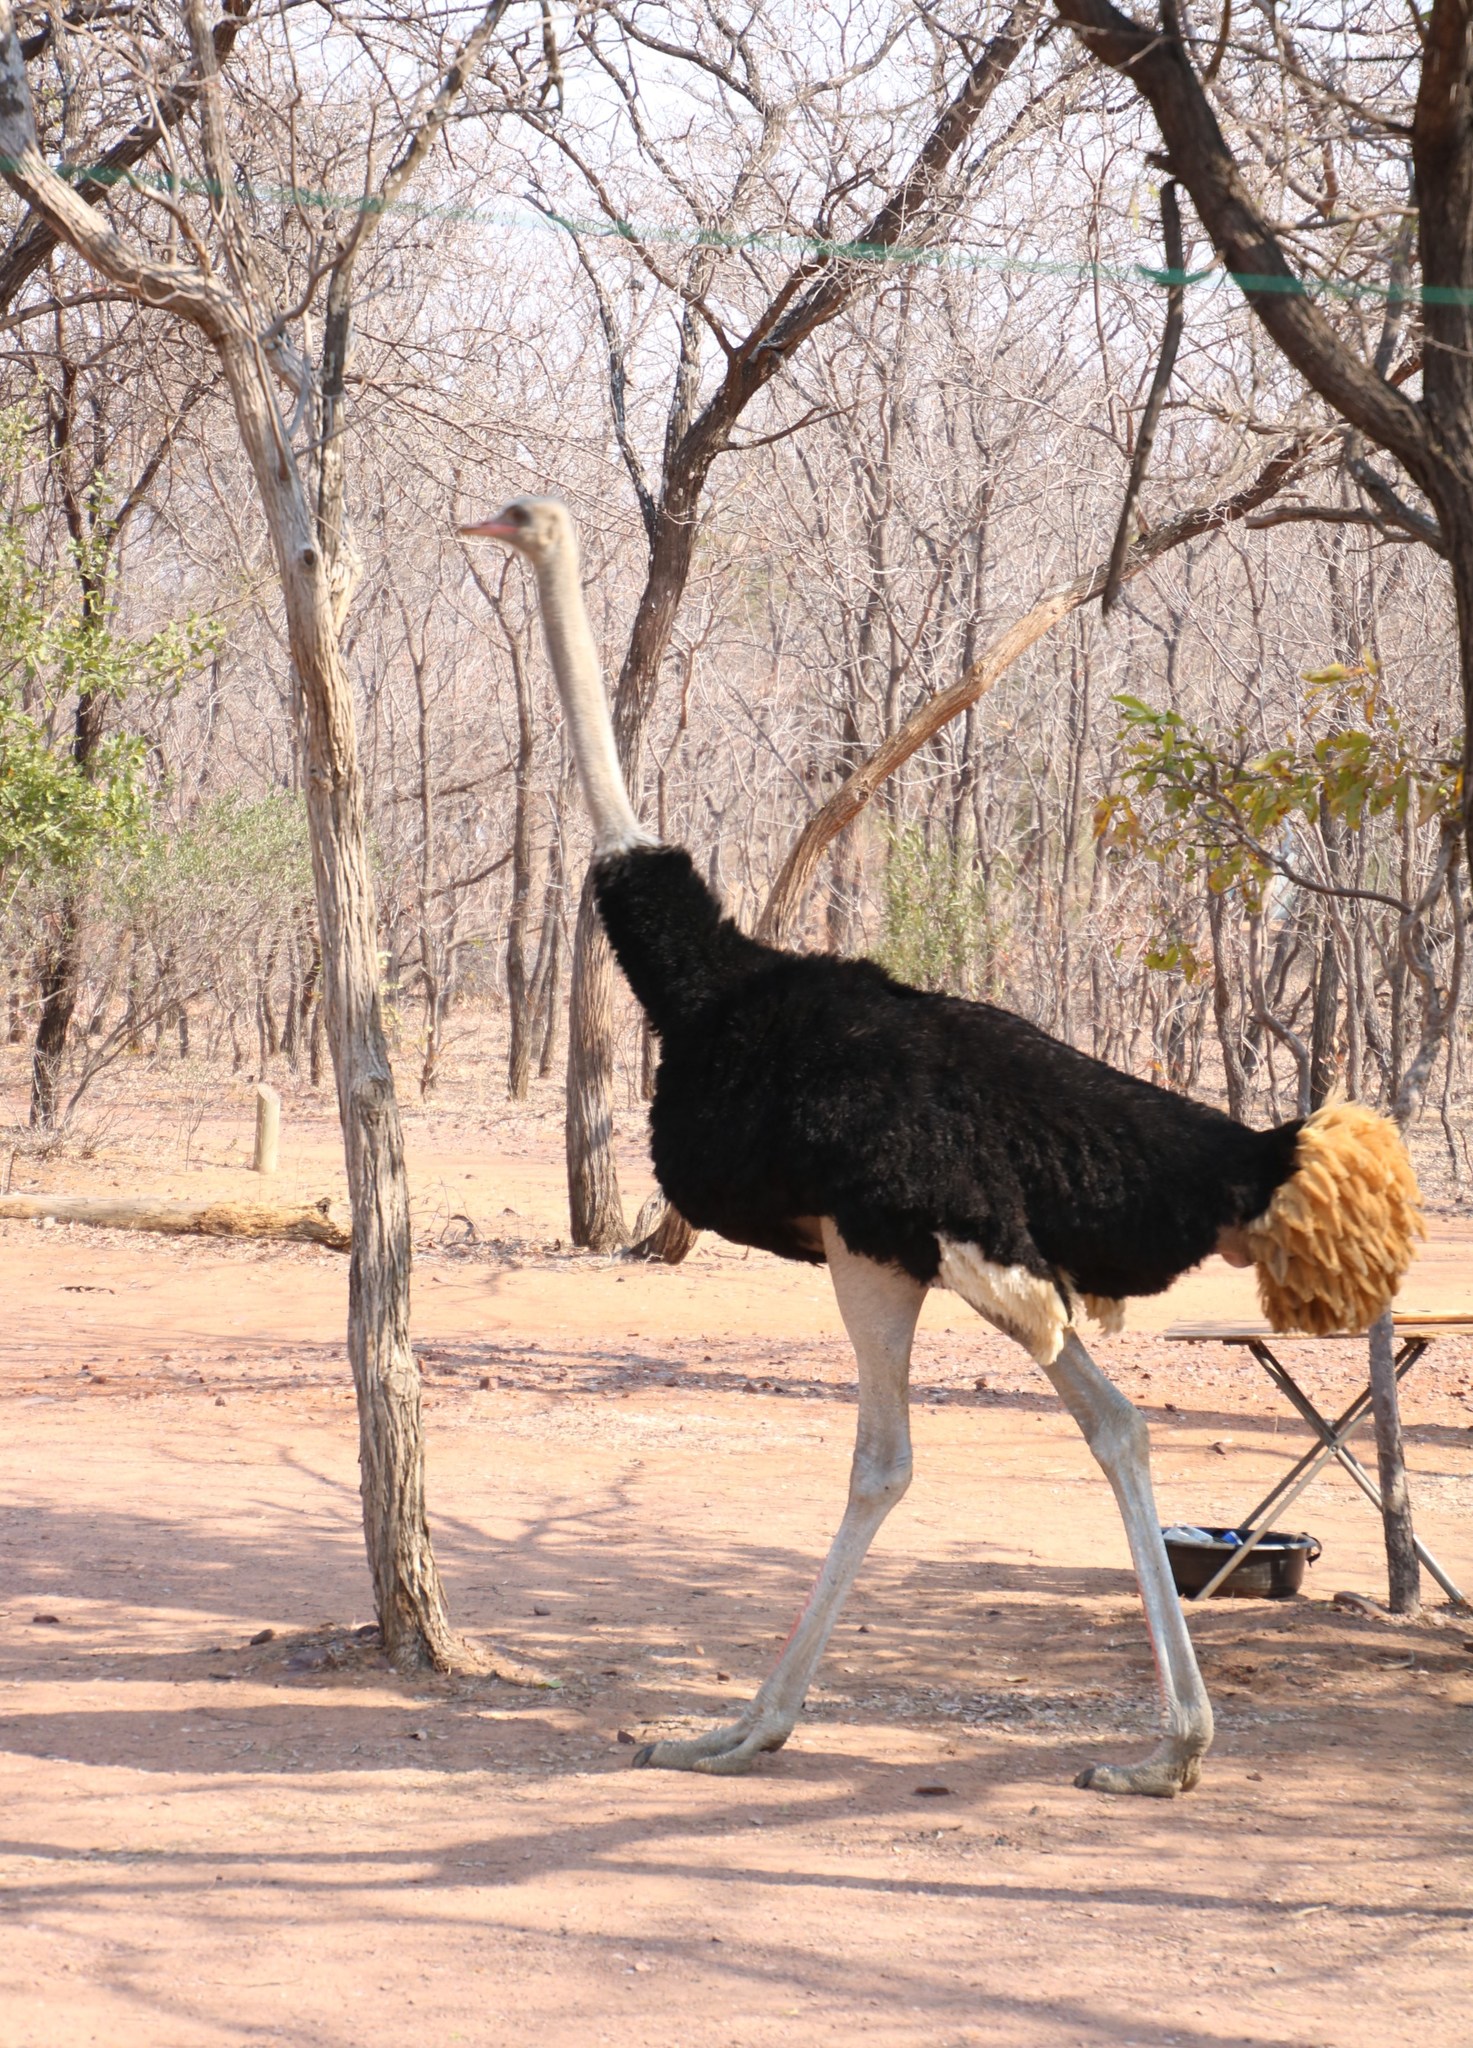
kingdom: Animalia
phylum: Chordata
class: Aves
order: Struthioniformes
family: Struthionidae
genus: Struthio
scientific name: Struthio camelus
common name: Common ostrich
